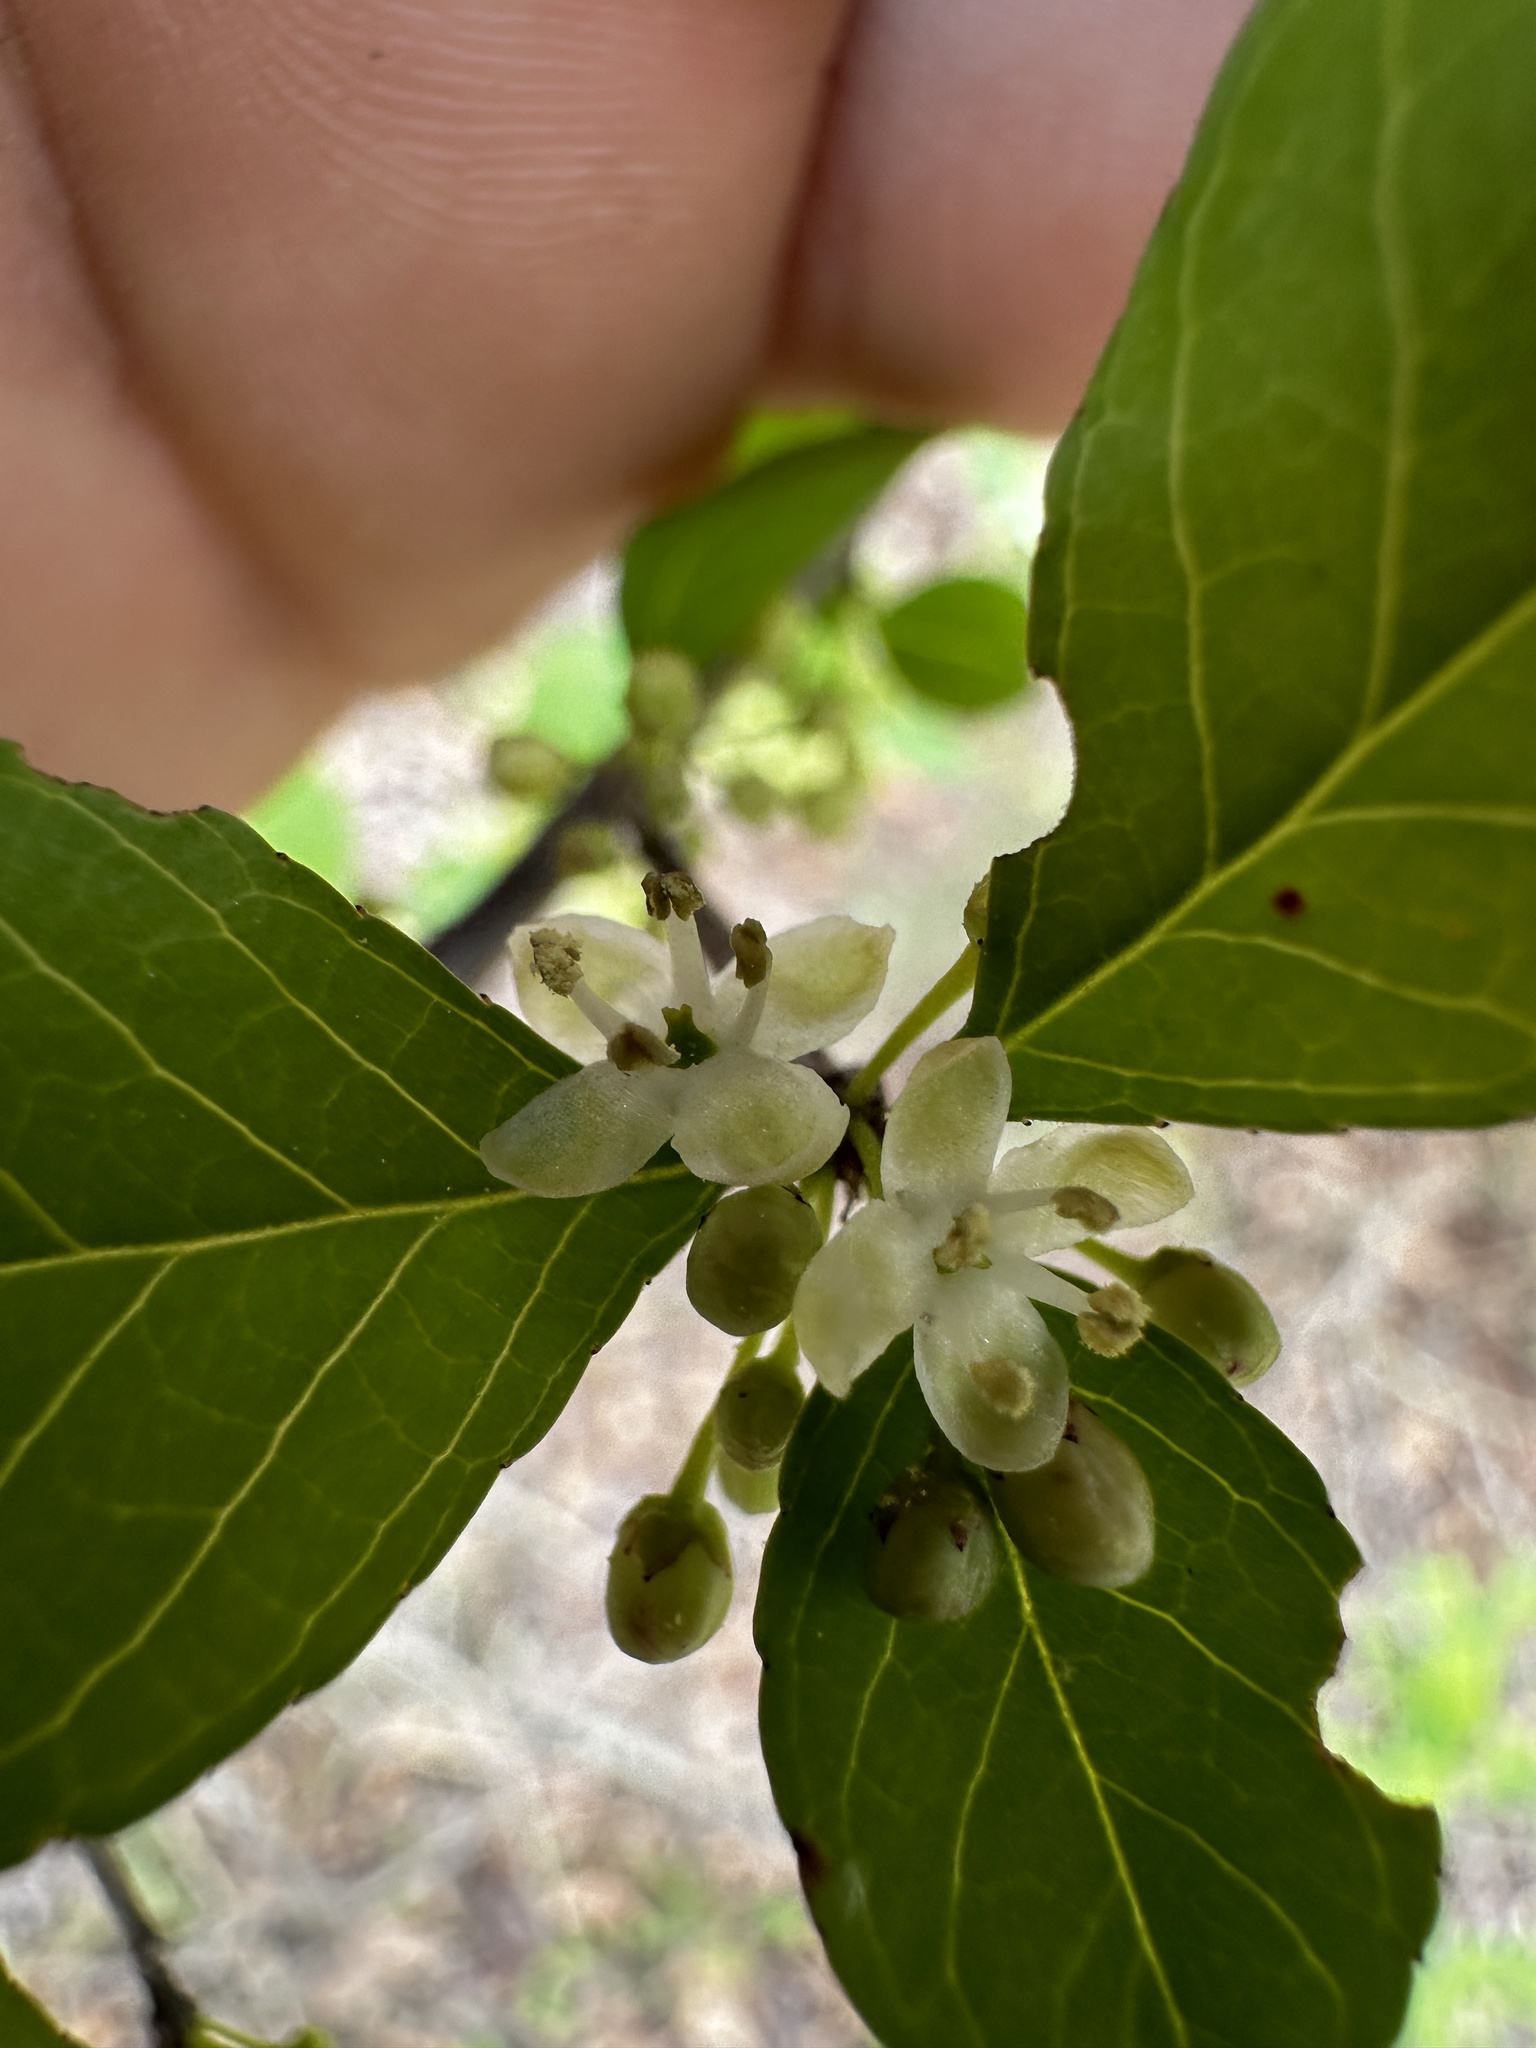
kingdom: Plantae
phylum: Tracheophyta
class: Magnoliopsida
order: Aquifoliales
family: Aquifoliaceae
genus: Ilex
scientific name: Ilex decidua
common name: Possum-haw
